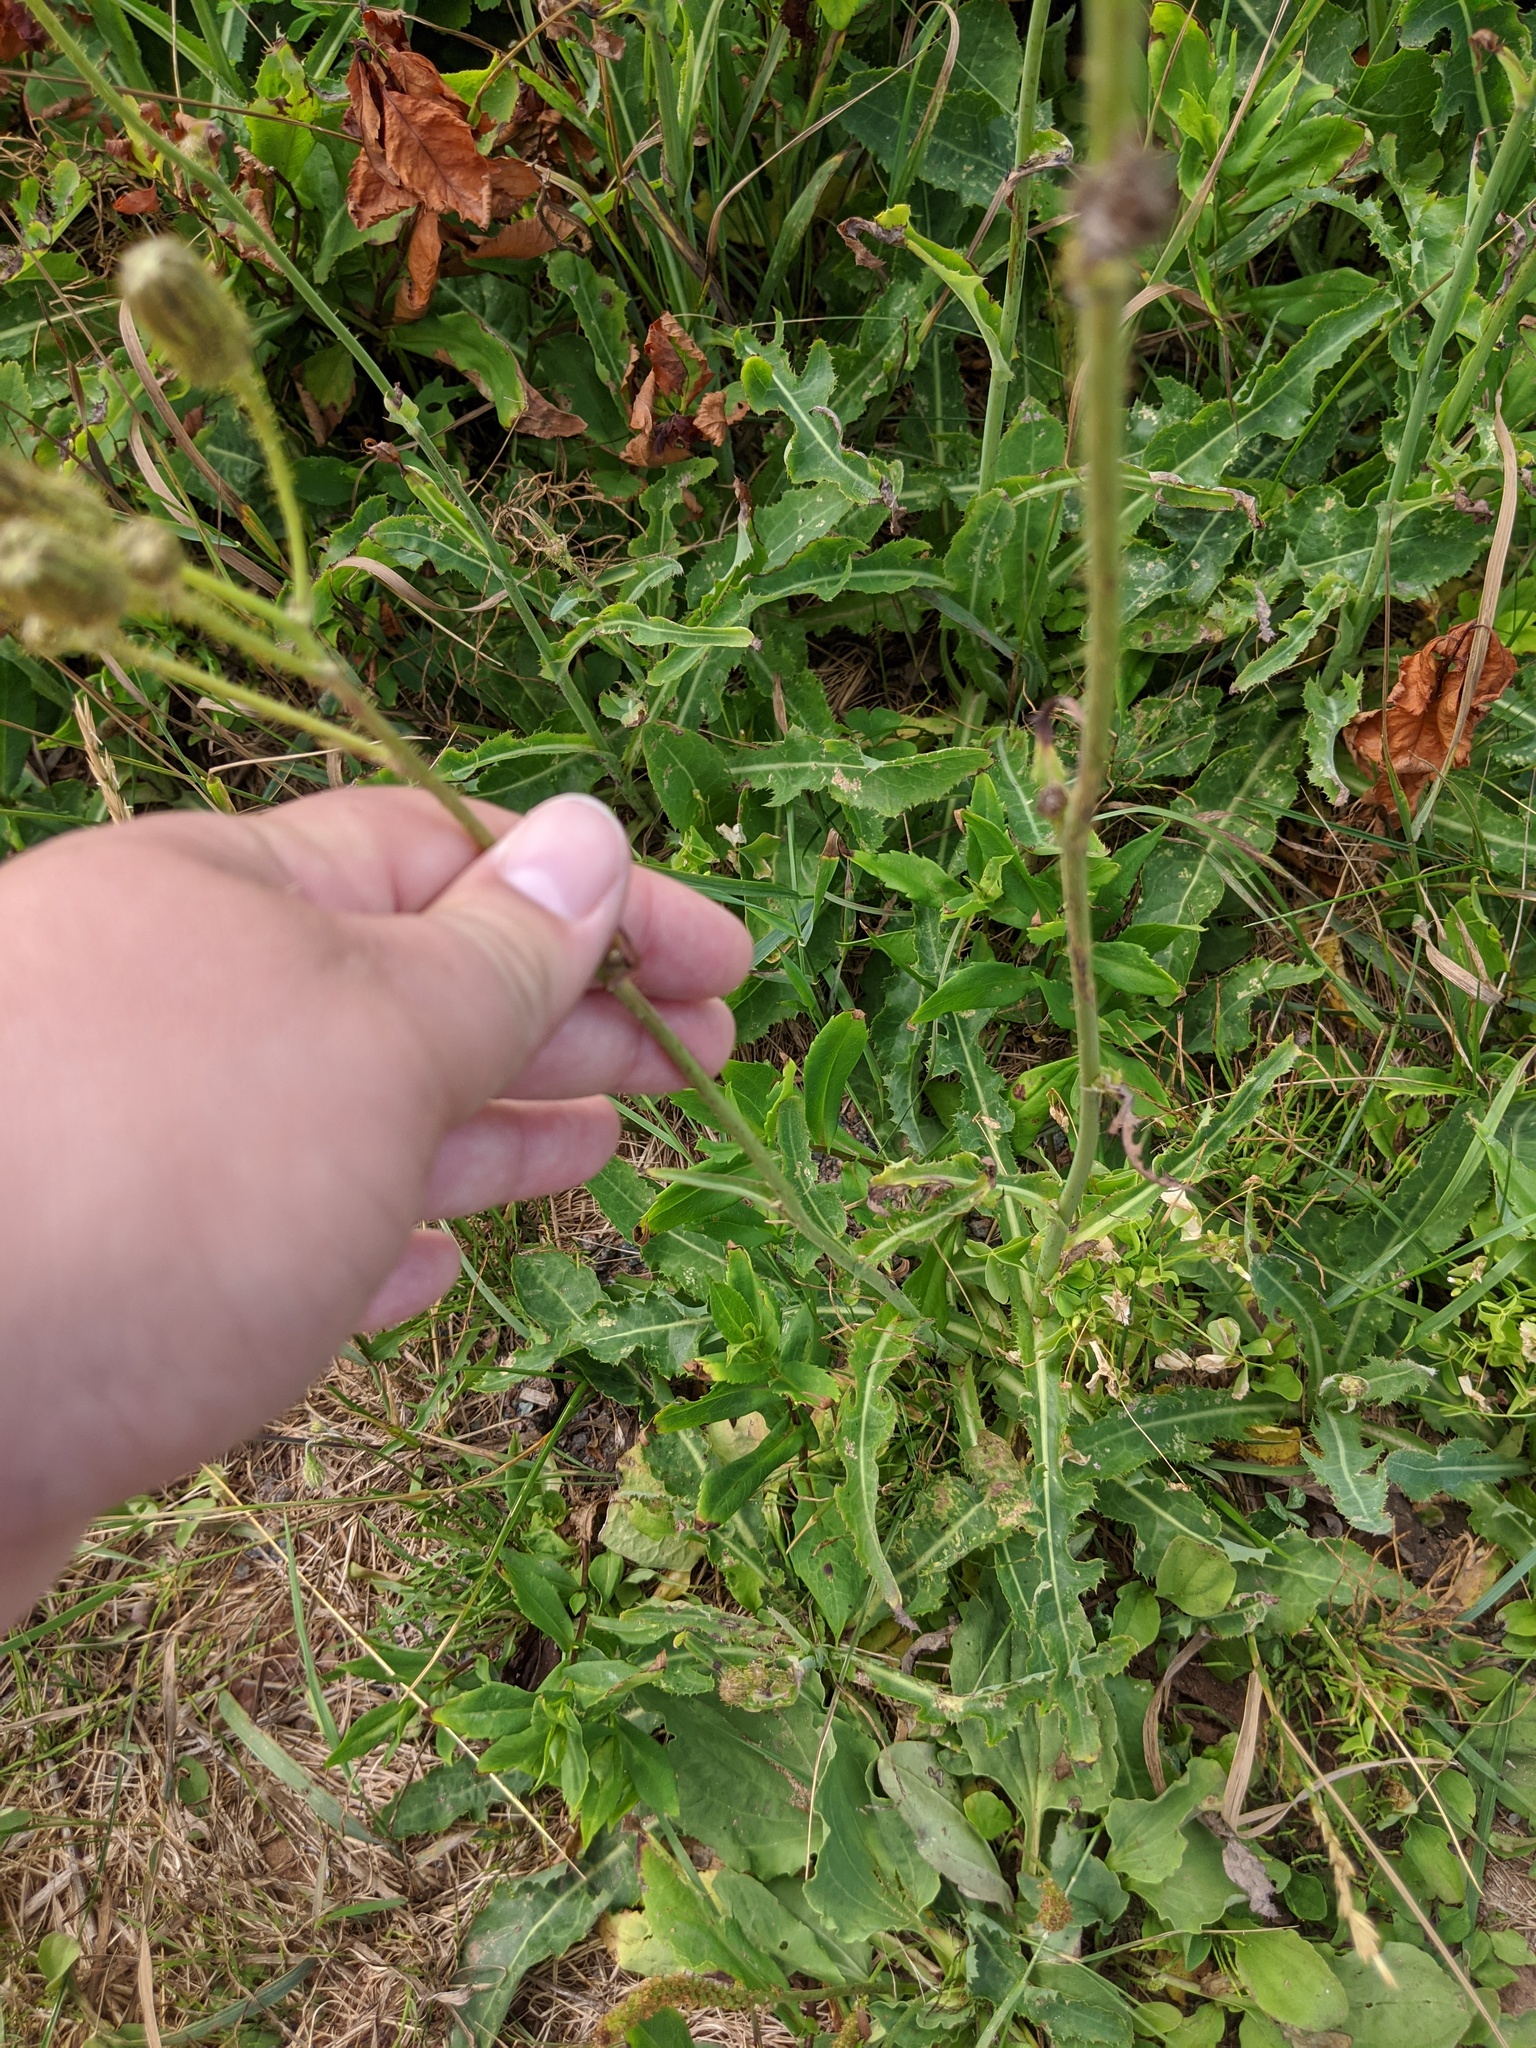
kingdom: Plantae
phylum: Tracheophyta
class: Magnoliopsida
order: Asterales
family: Asteraceae
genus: Sonchus
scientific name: Sonchus arvensis
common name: Perennial sow-thistle
